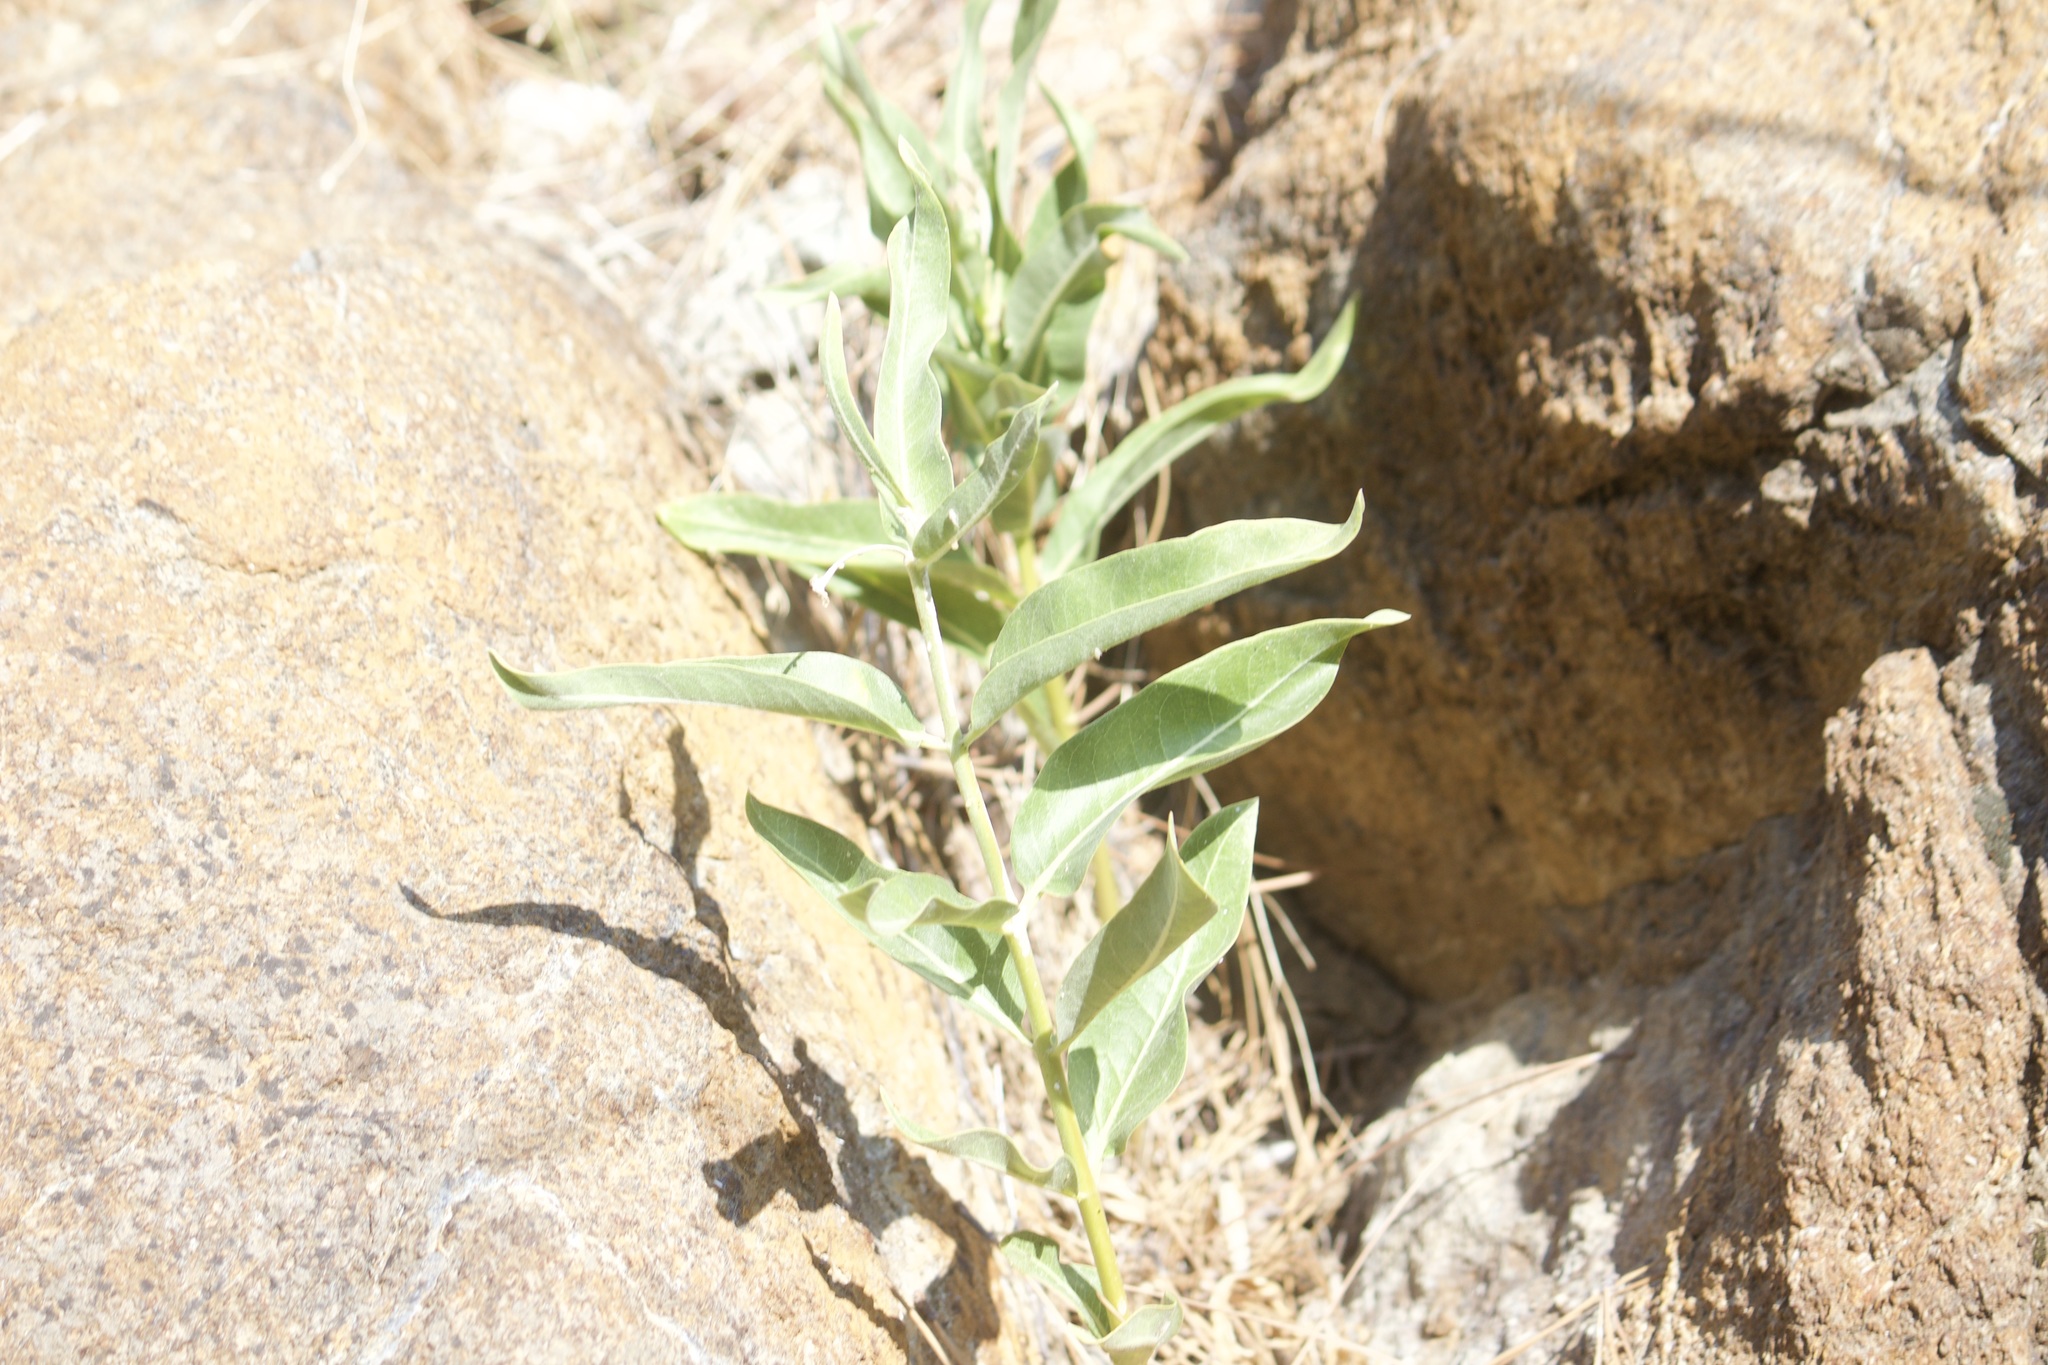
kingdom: Plantae
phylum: Tracheophyta
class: Magnoliopsida
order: Gentianales
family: Apocynaceae
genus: Asclepias
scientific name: Asclepias speciosa
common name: Showy milkweed
